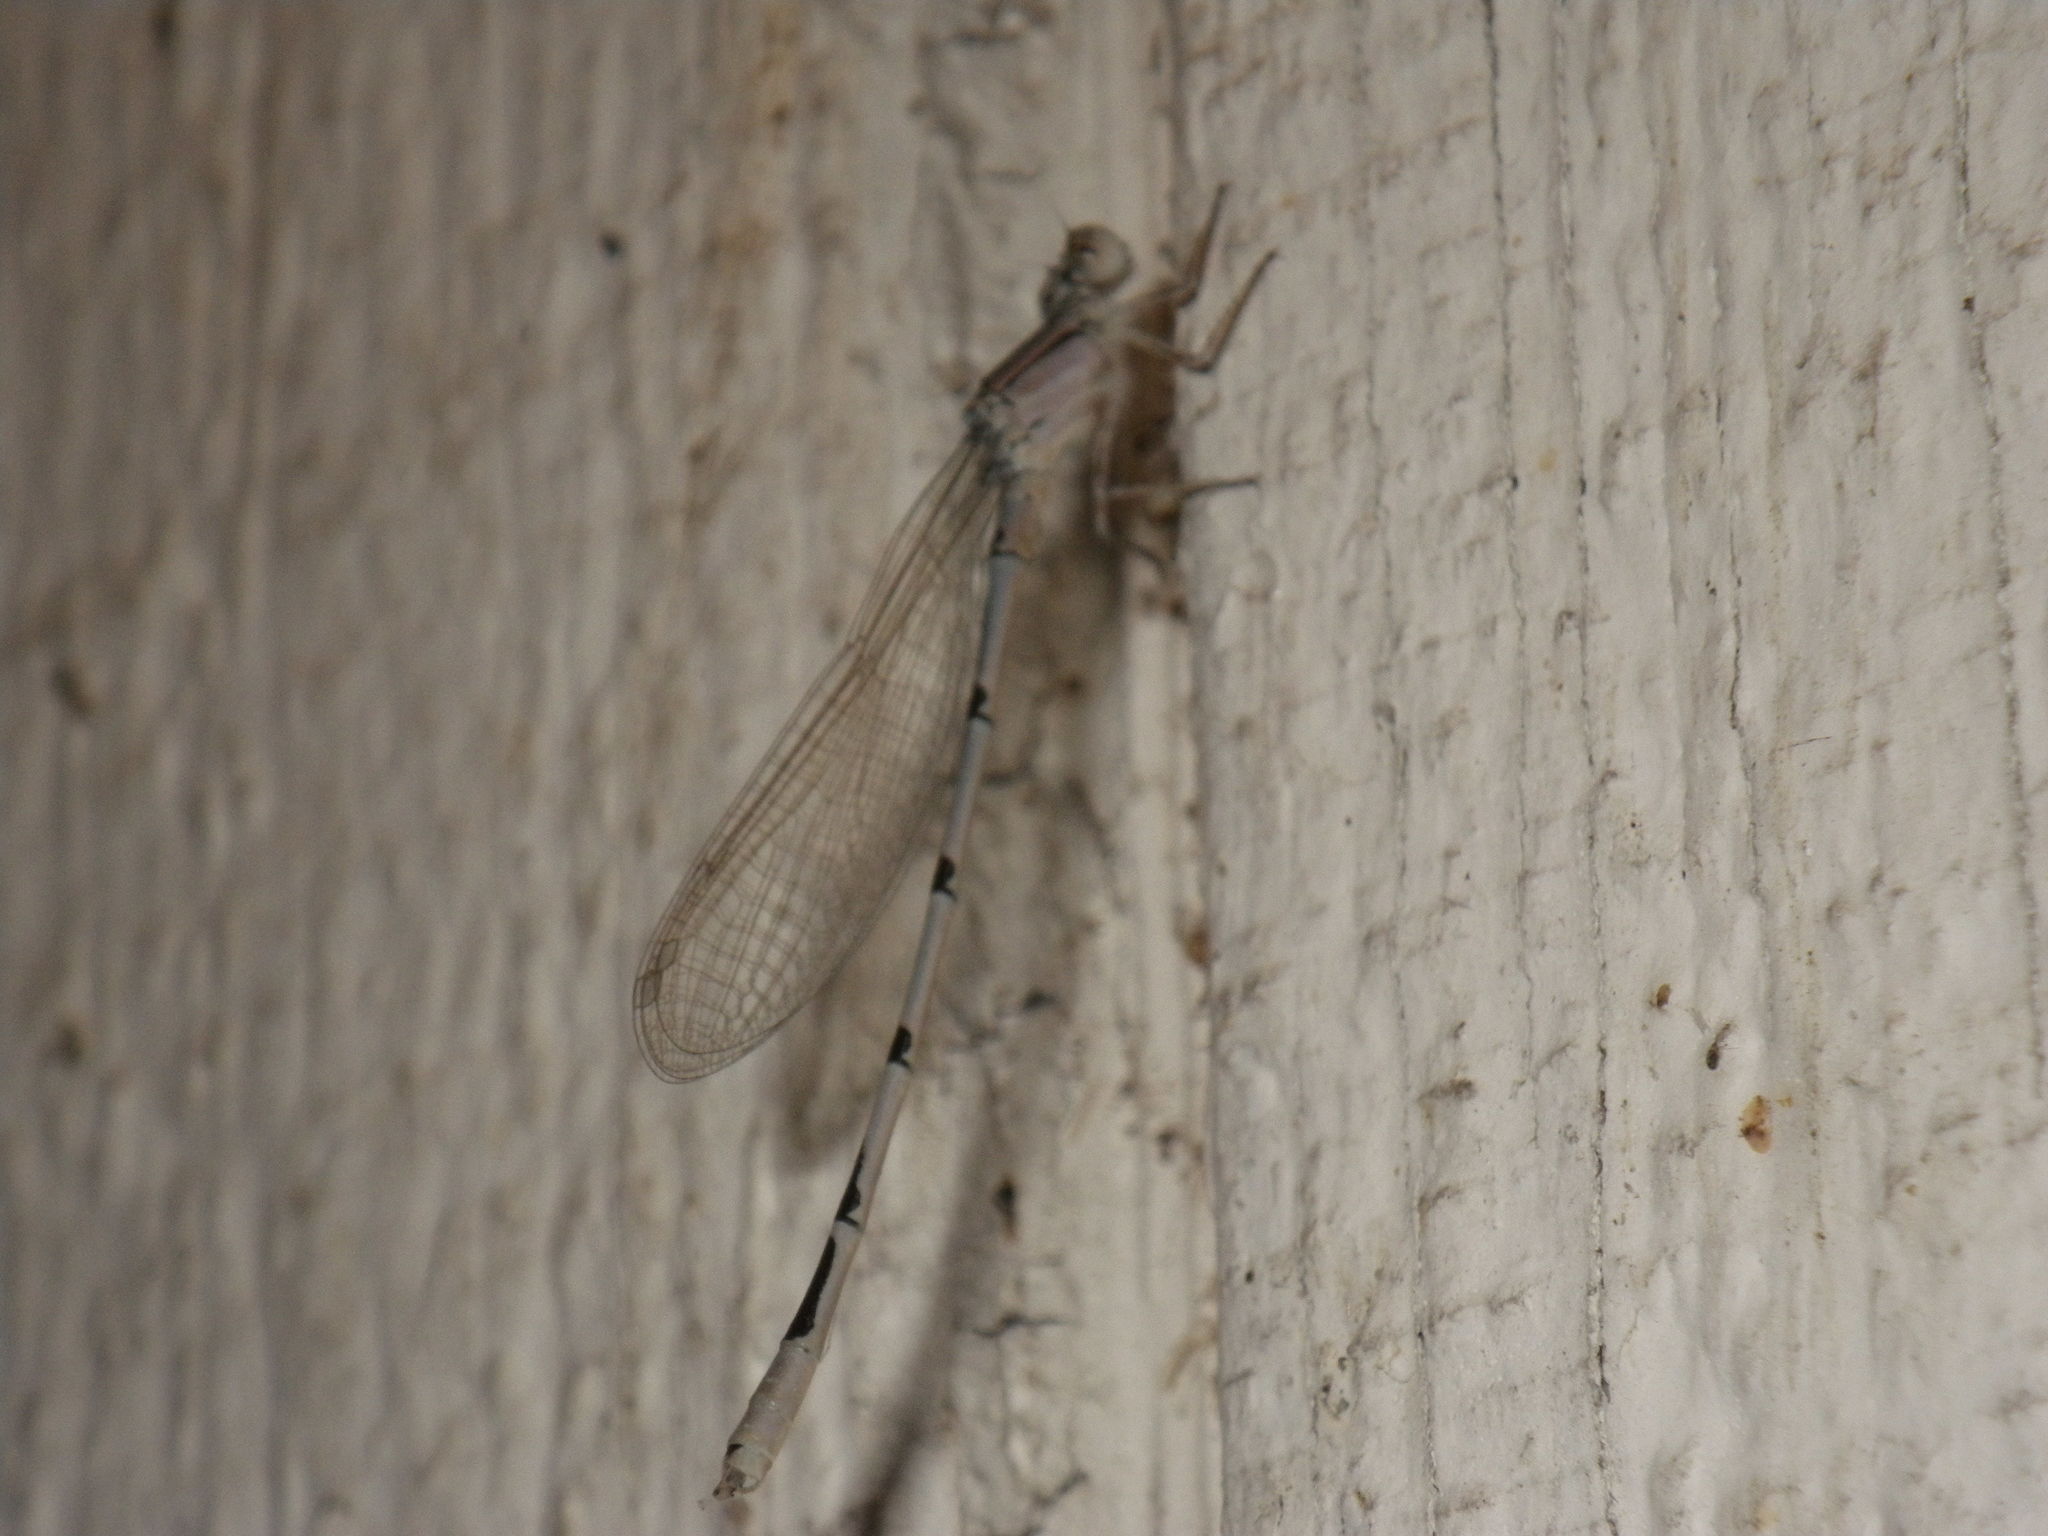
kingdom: Animalia
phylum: Arthropoda
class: Insecta
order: Odonata
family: Coenagrionidae
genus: Enallagma
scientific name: Enallagma civile
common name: Damselfly
